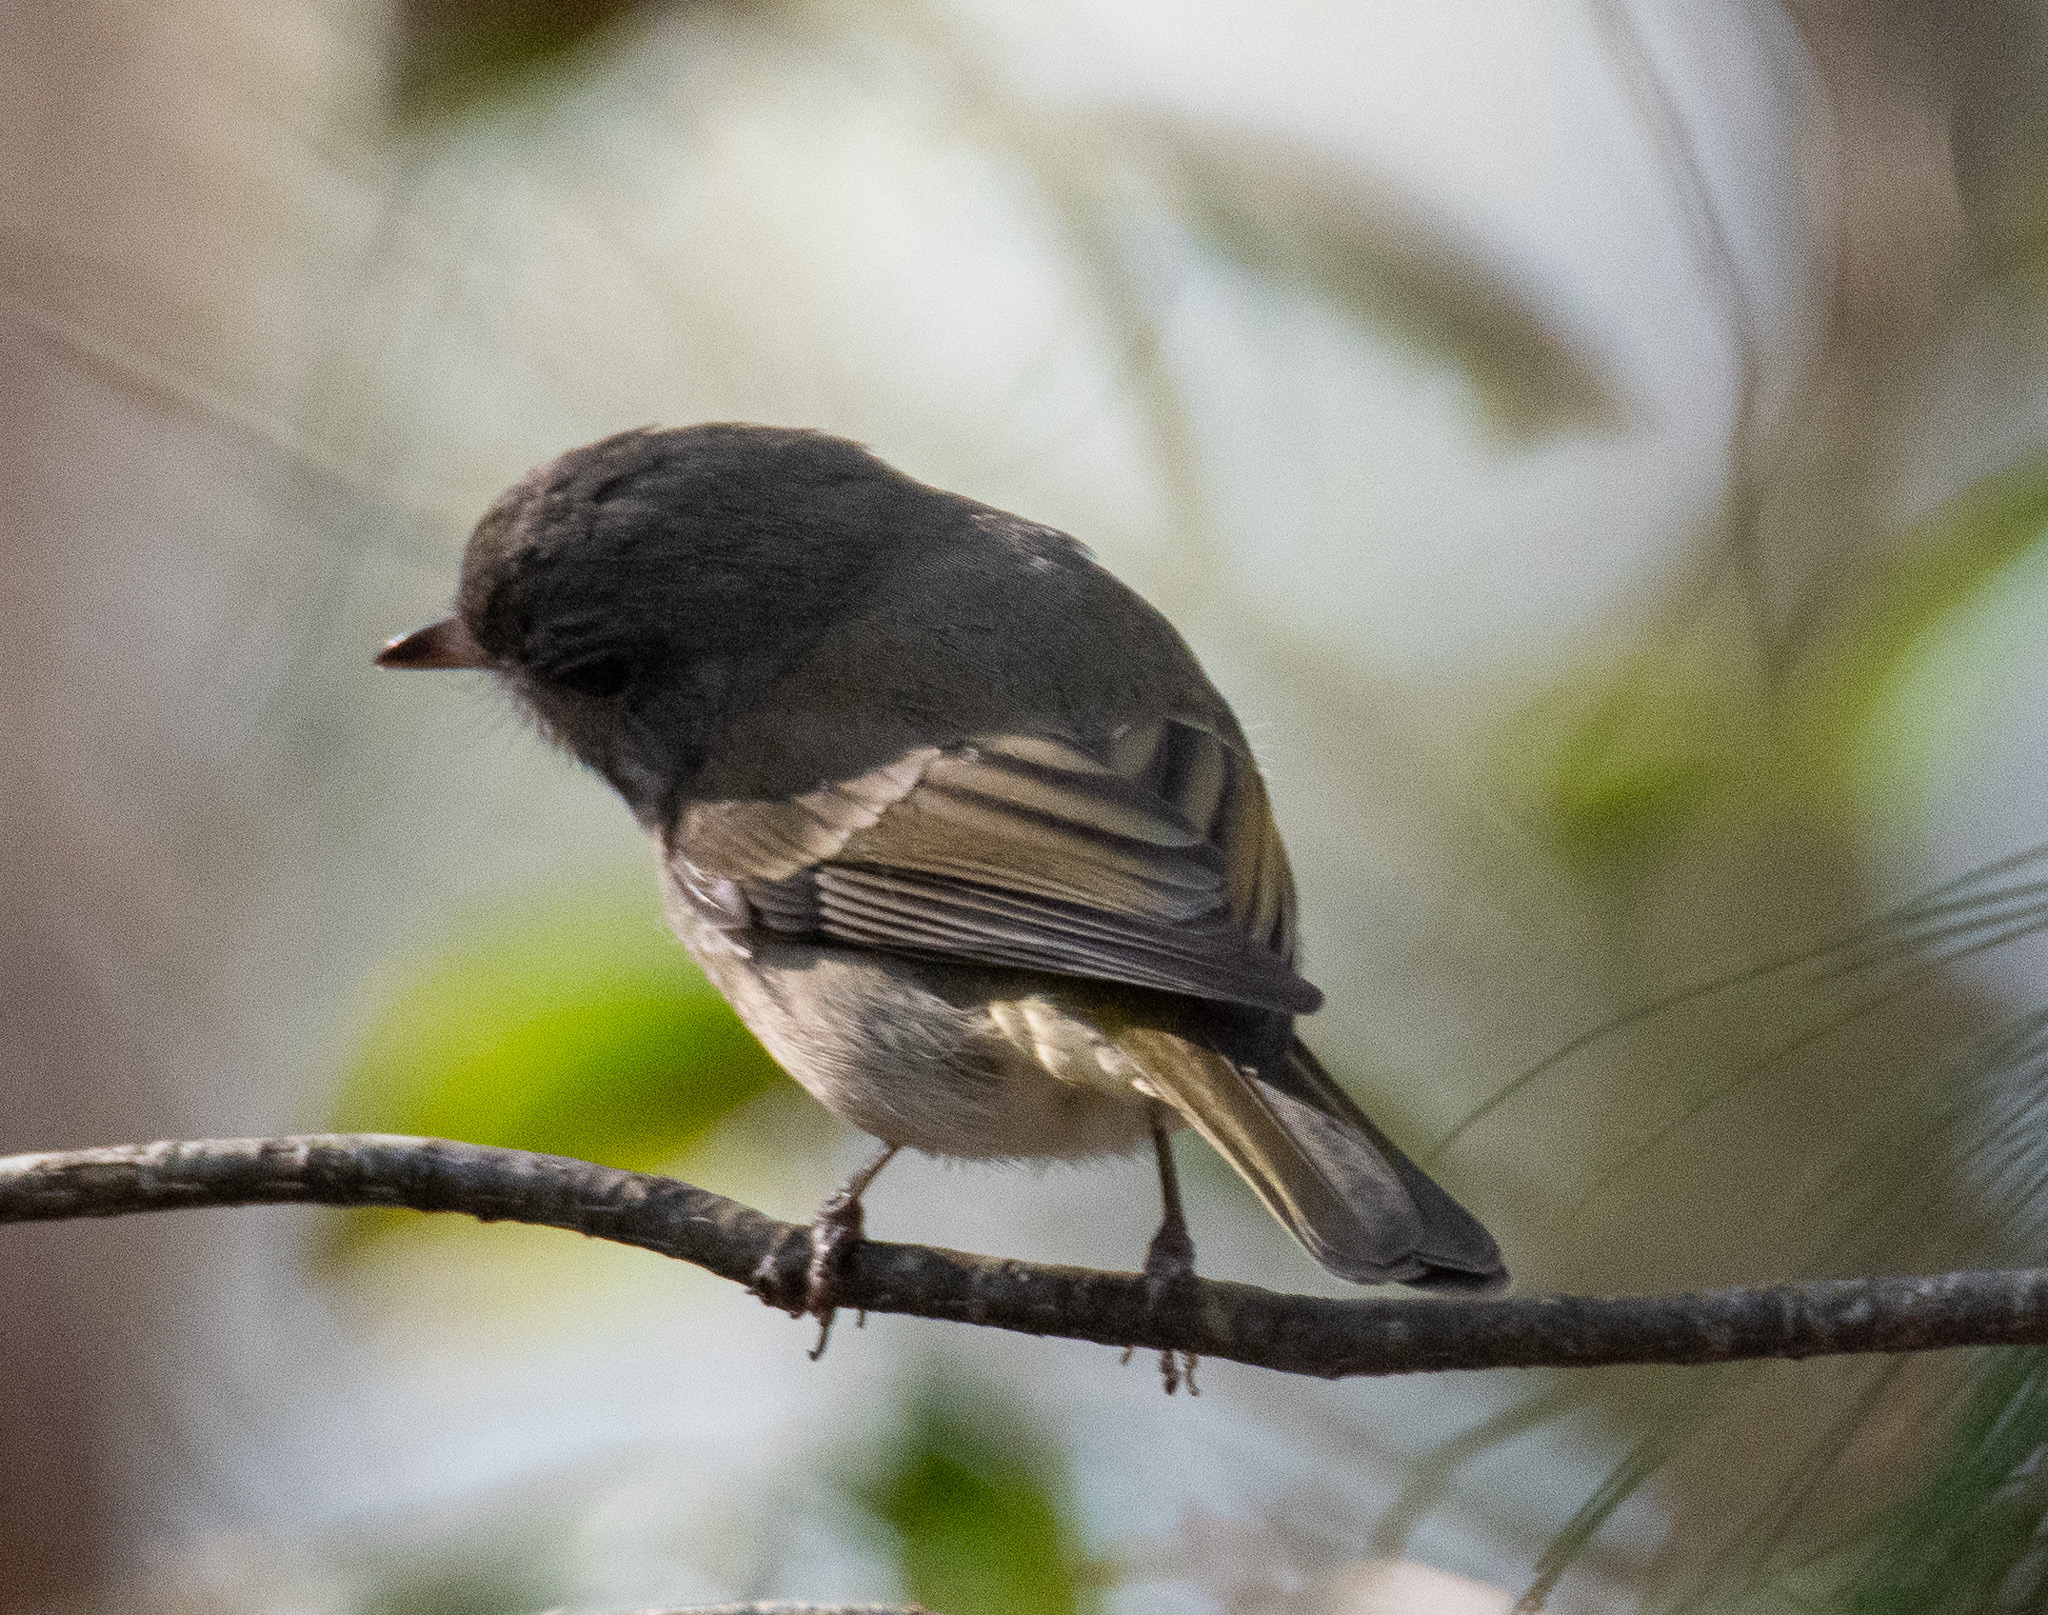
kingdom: Animalia
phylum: Chordata
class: Aves
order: Passeriformes
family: Pachycephalidae
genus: Pachycephala
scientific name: Pachycephala pectoralis
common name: Australian golden whistler
